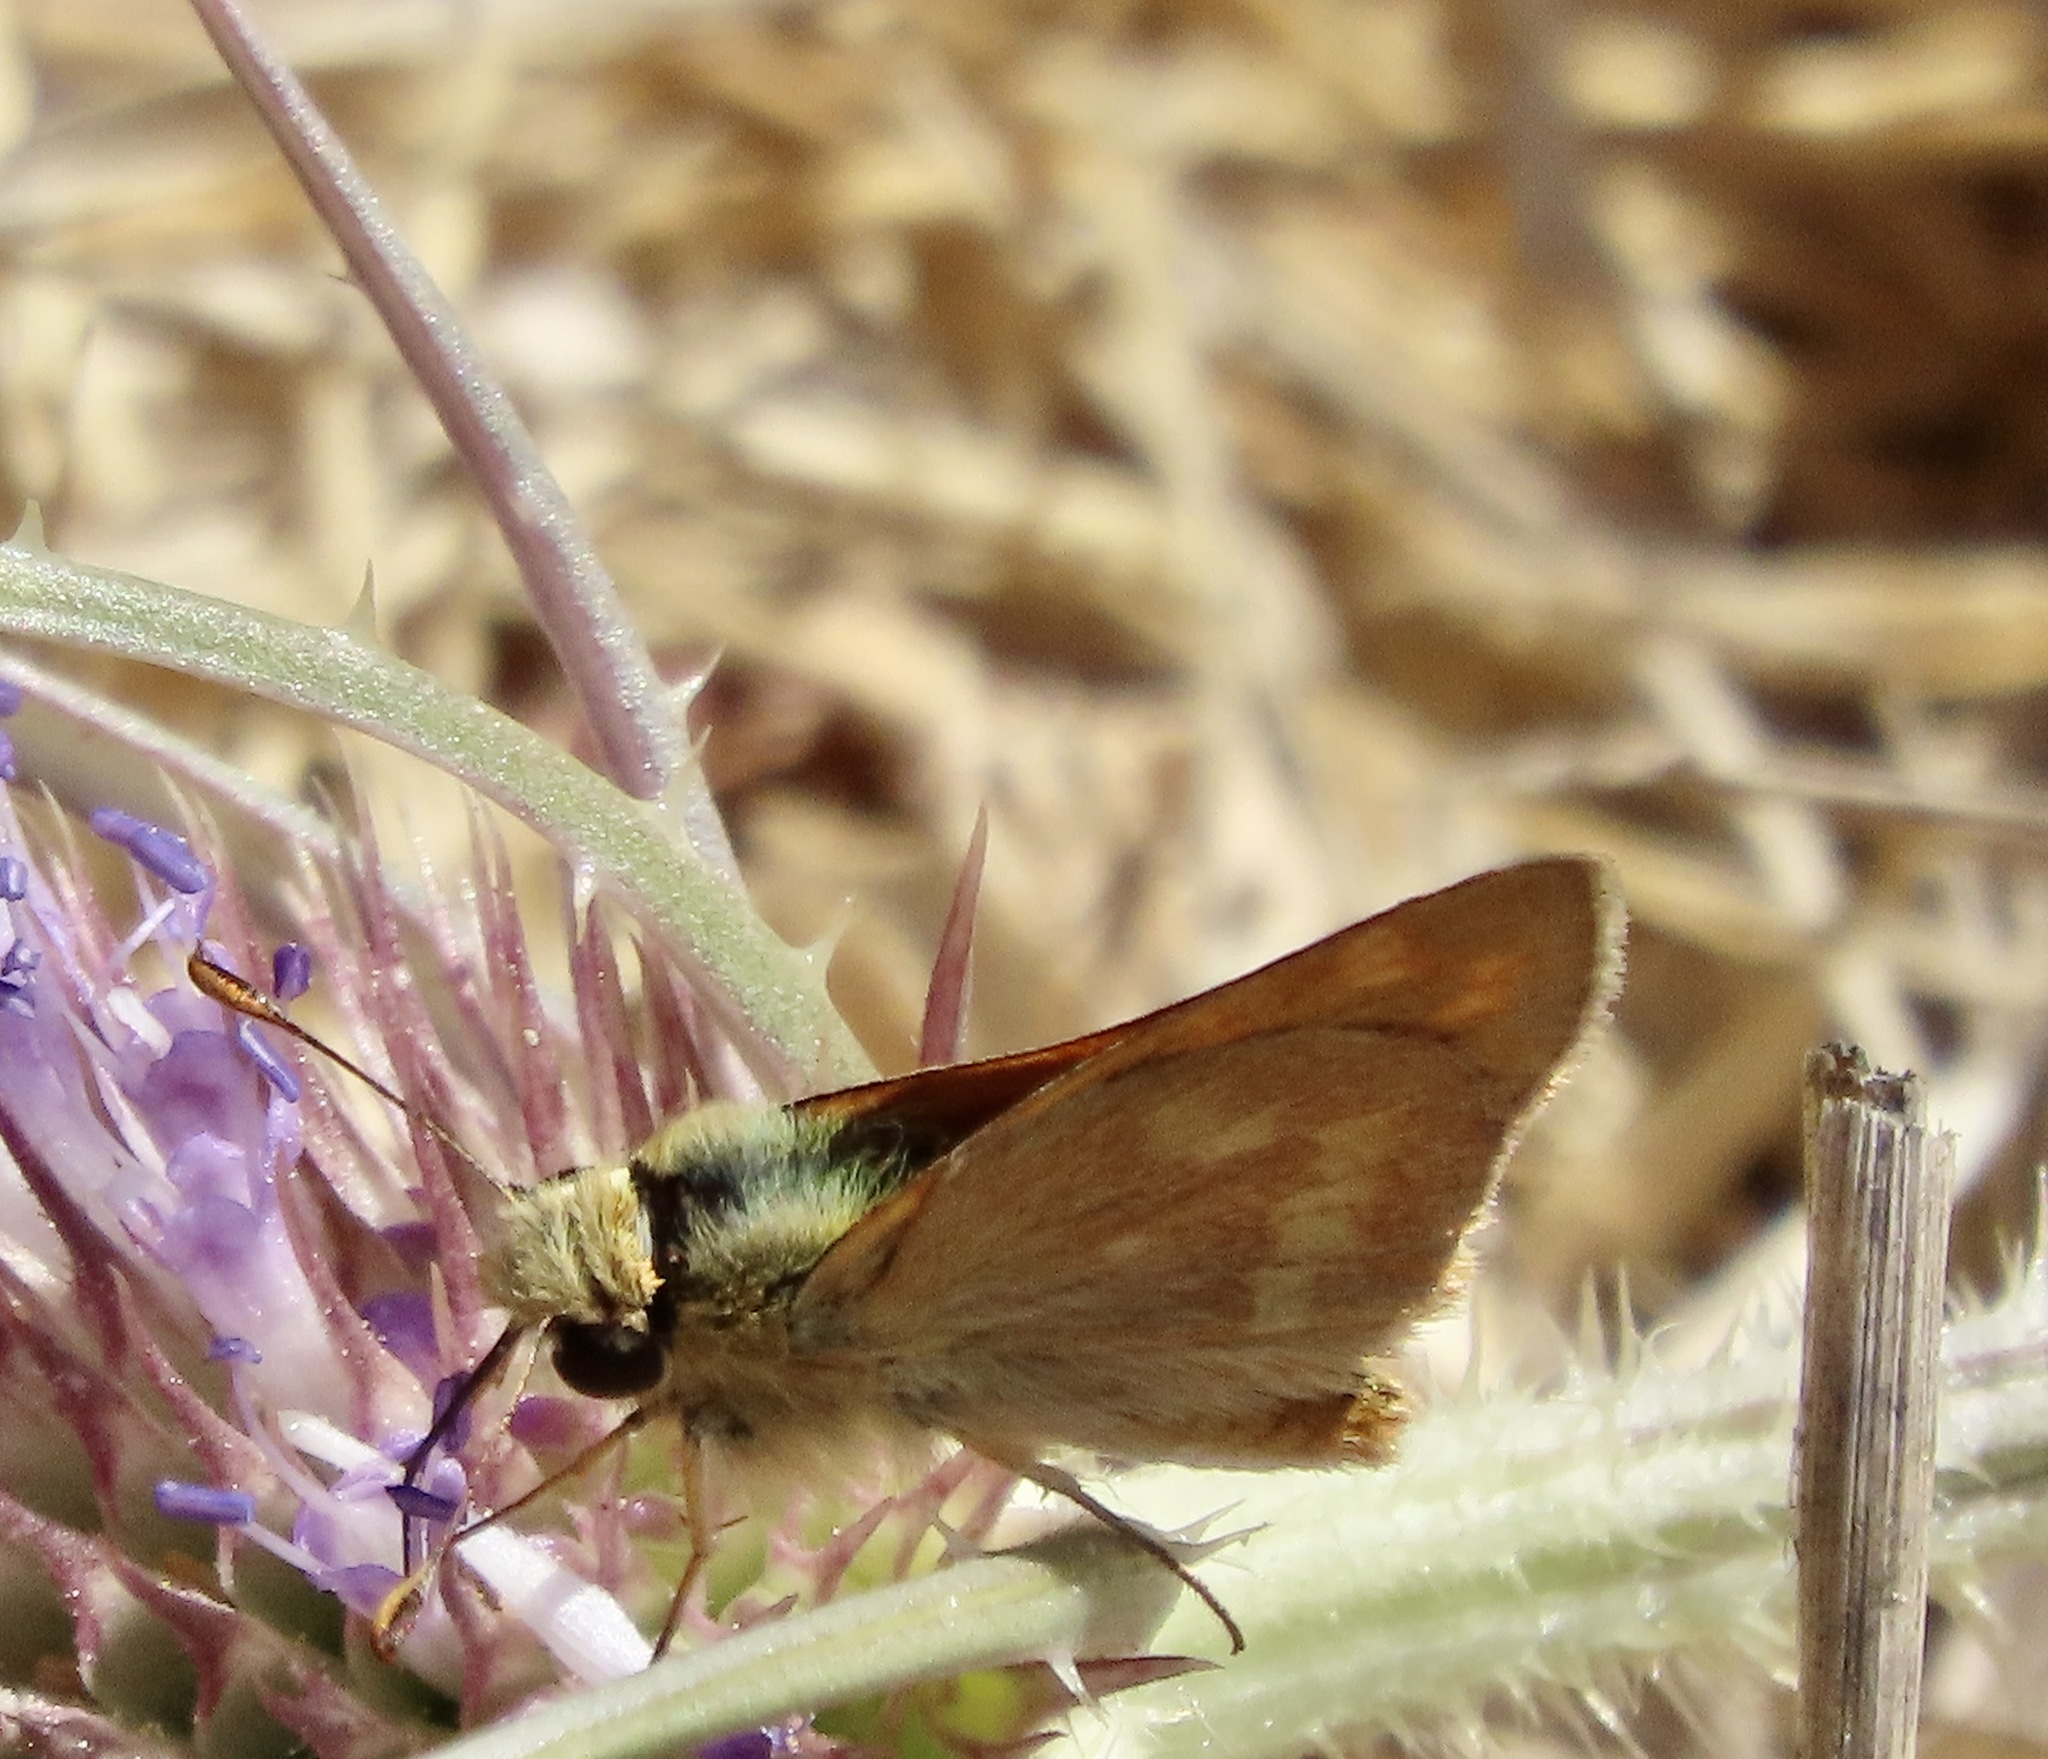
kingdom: Animalia
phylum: Arthropoda
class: Insecta
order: Lepidoptera
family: Hesperiidae
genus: Ochlodes
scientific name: Ochlodes sylvanoides
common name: Woodland skipper
